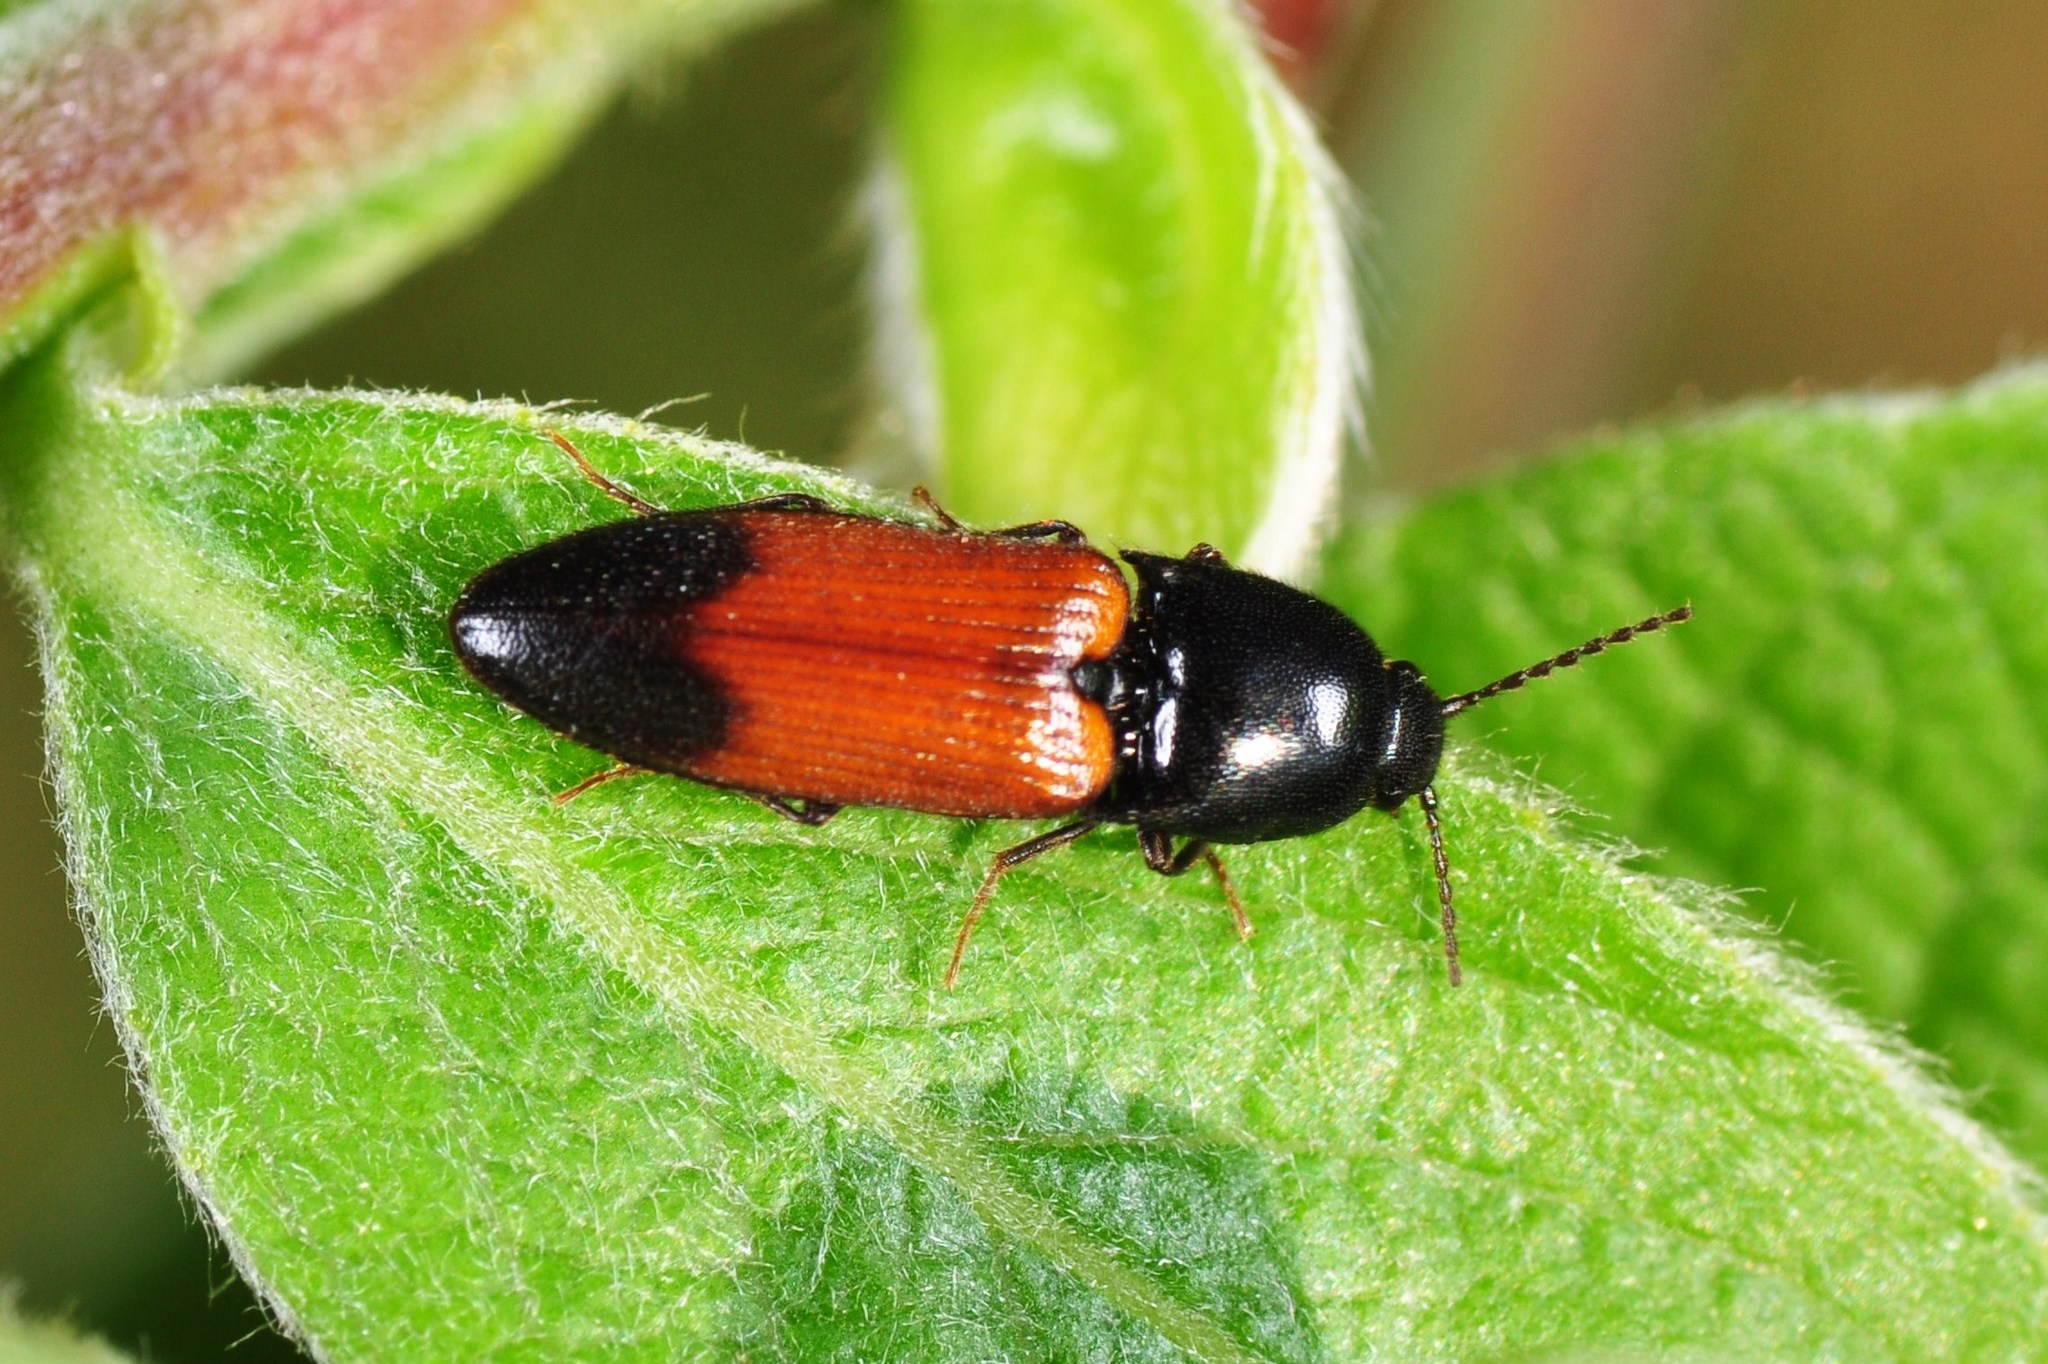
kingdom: Animalia
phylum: Arthropoda
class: Insecta
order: Coleoptera
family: Elateridae
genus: Ampedus
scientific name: Ampedus balteatus
